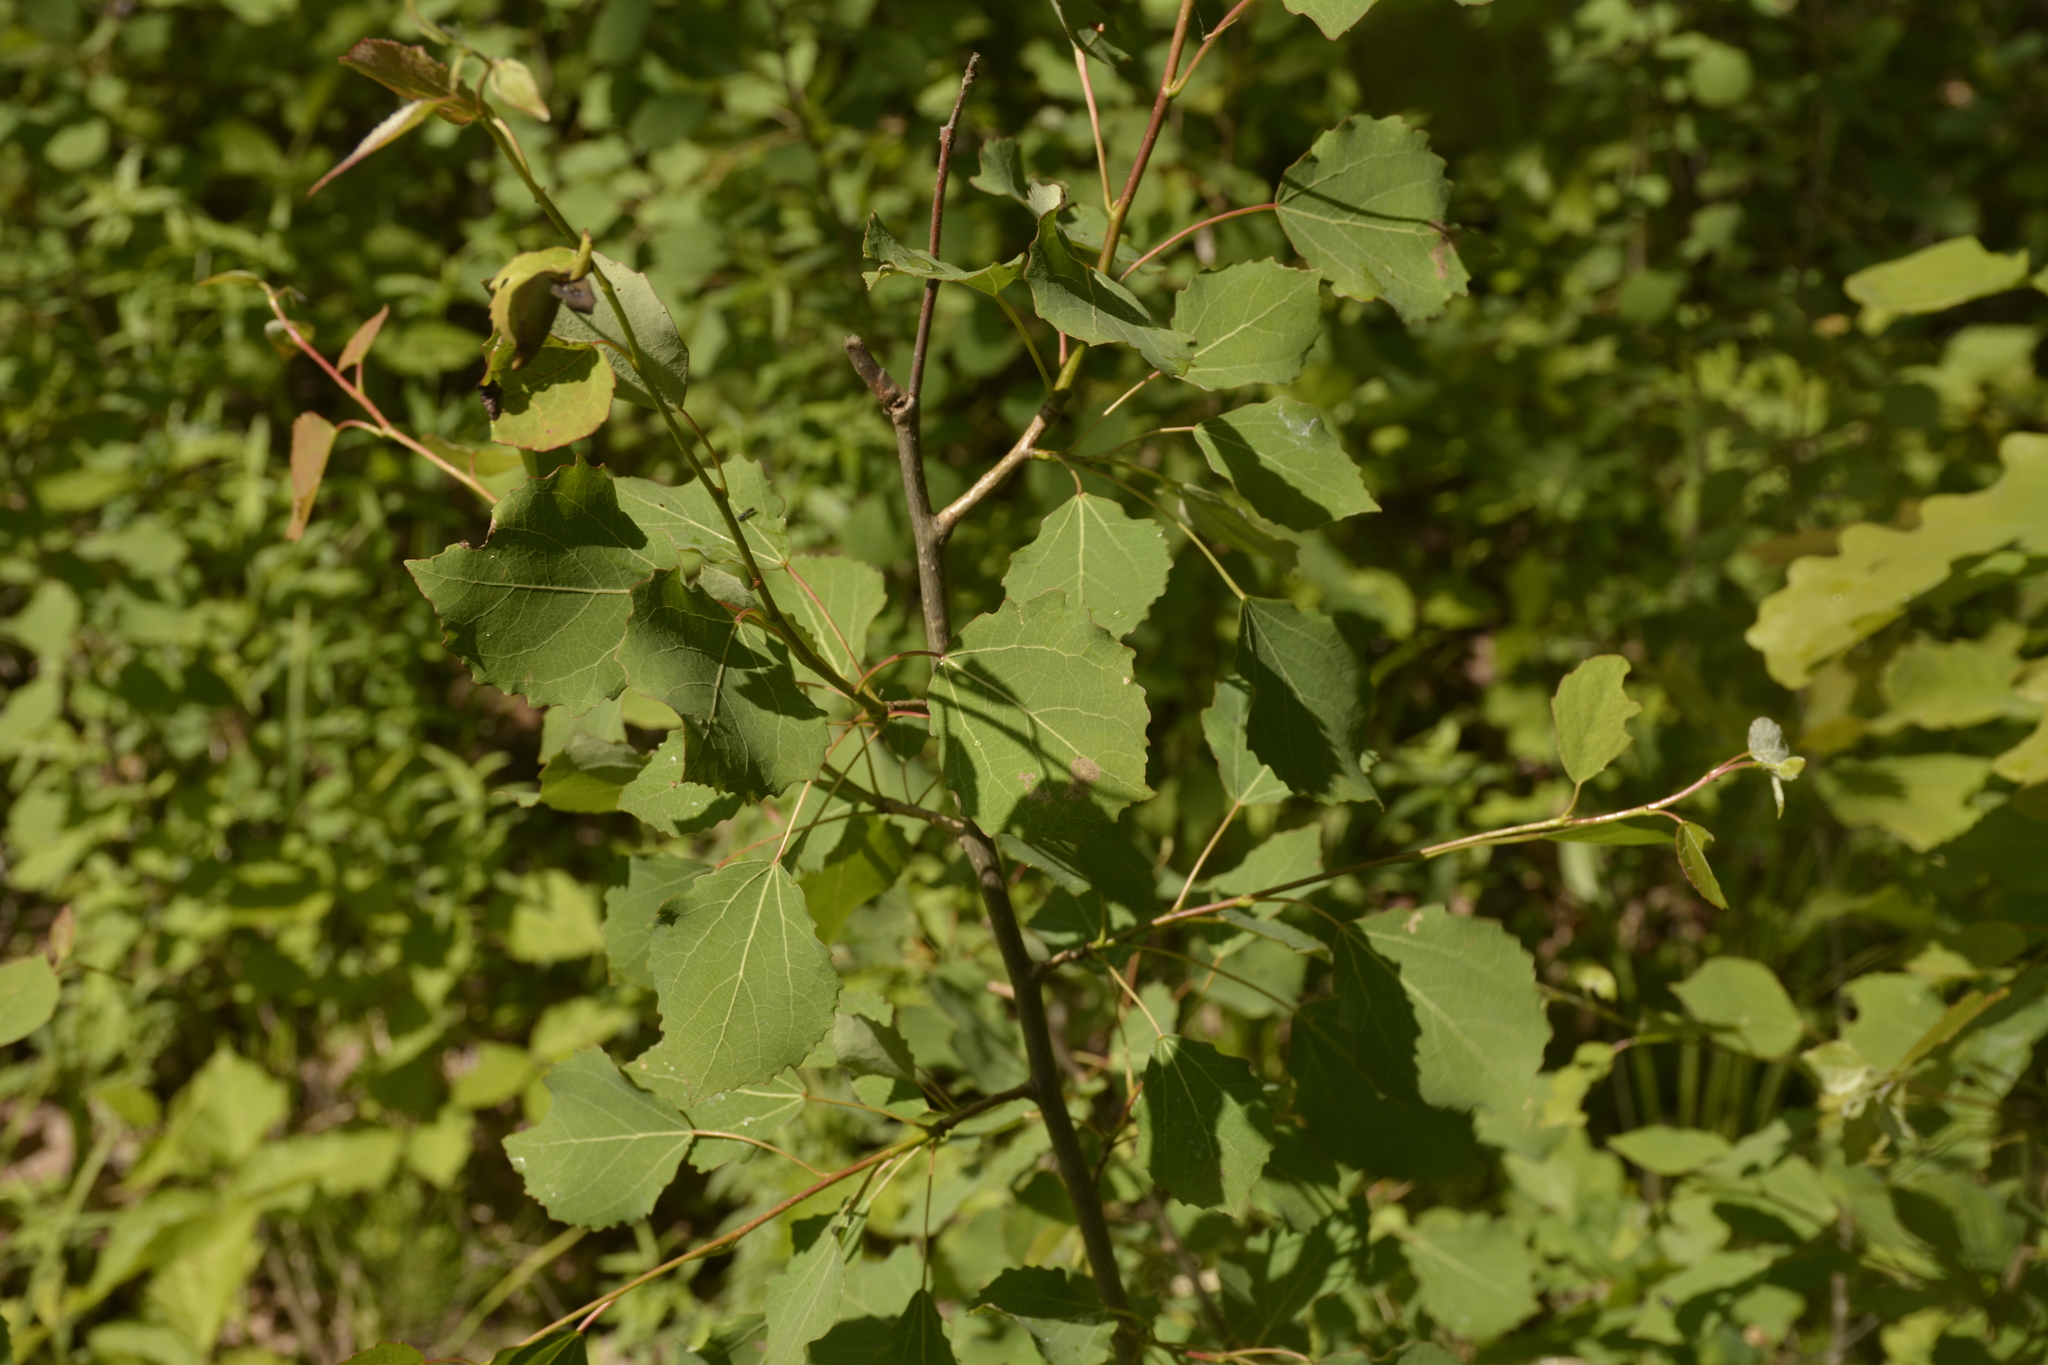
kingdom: Plantae
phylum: Tracheophyta
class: Magnoliopsida
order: Malpighiales
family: Salicaceae
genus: Populus
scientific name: Populus tremula
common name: European aspen
